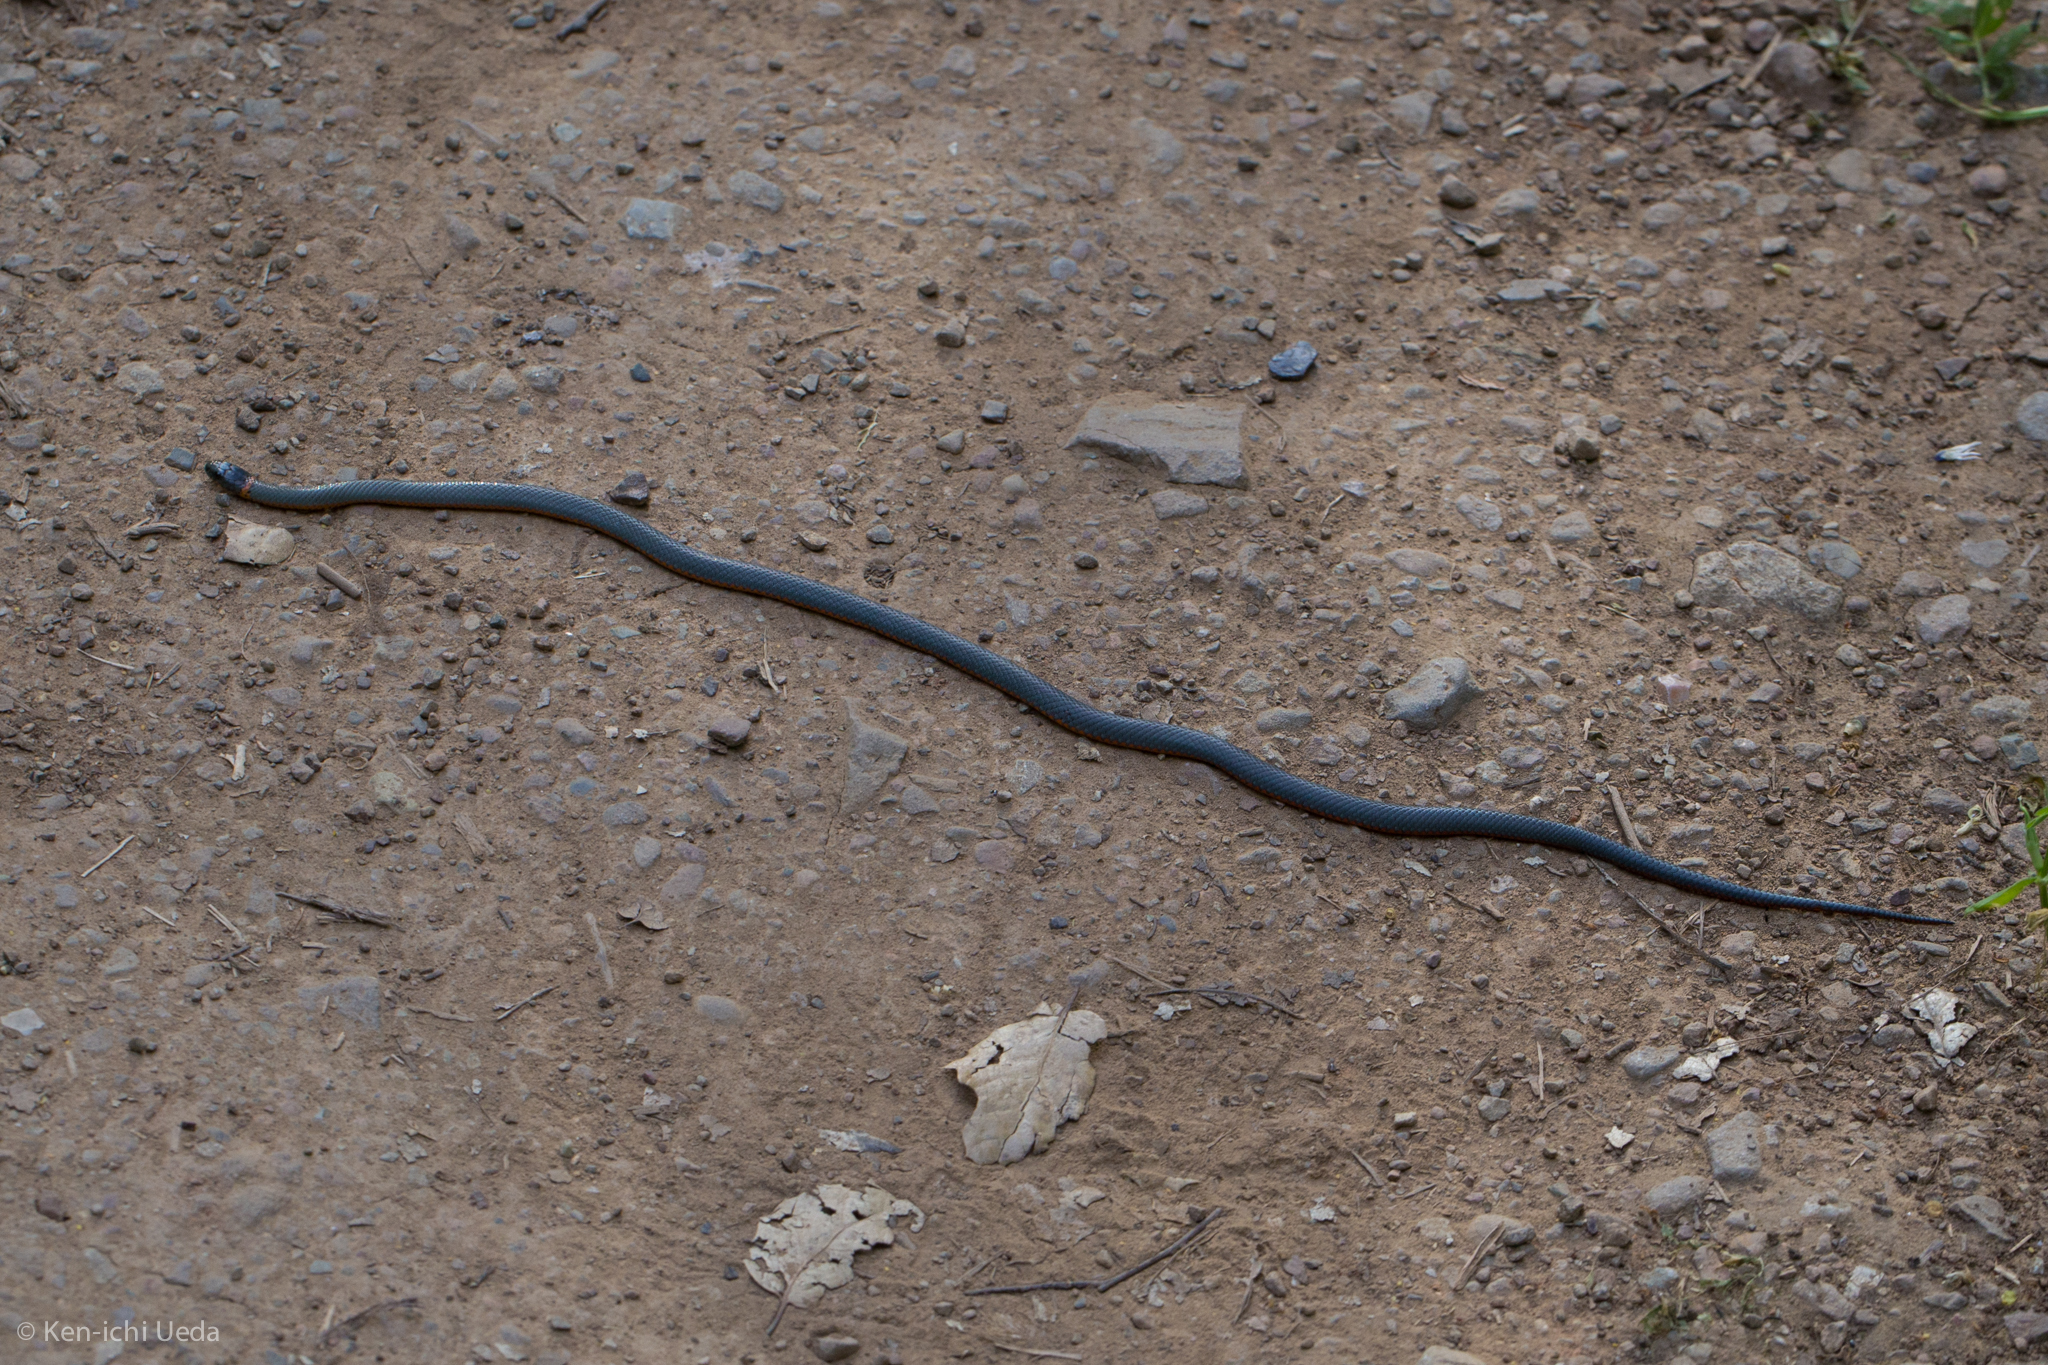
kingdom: Animalia
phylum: Chordata
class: Squamata
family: Colubridae
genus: Diadophis
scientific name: Diadophis punctatus
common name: Ringneck snake
